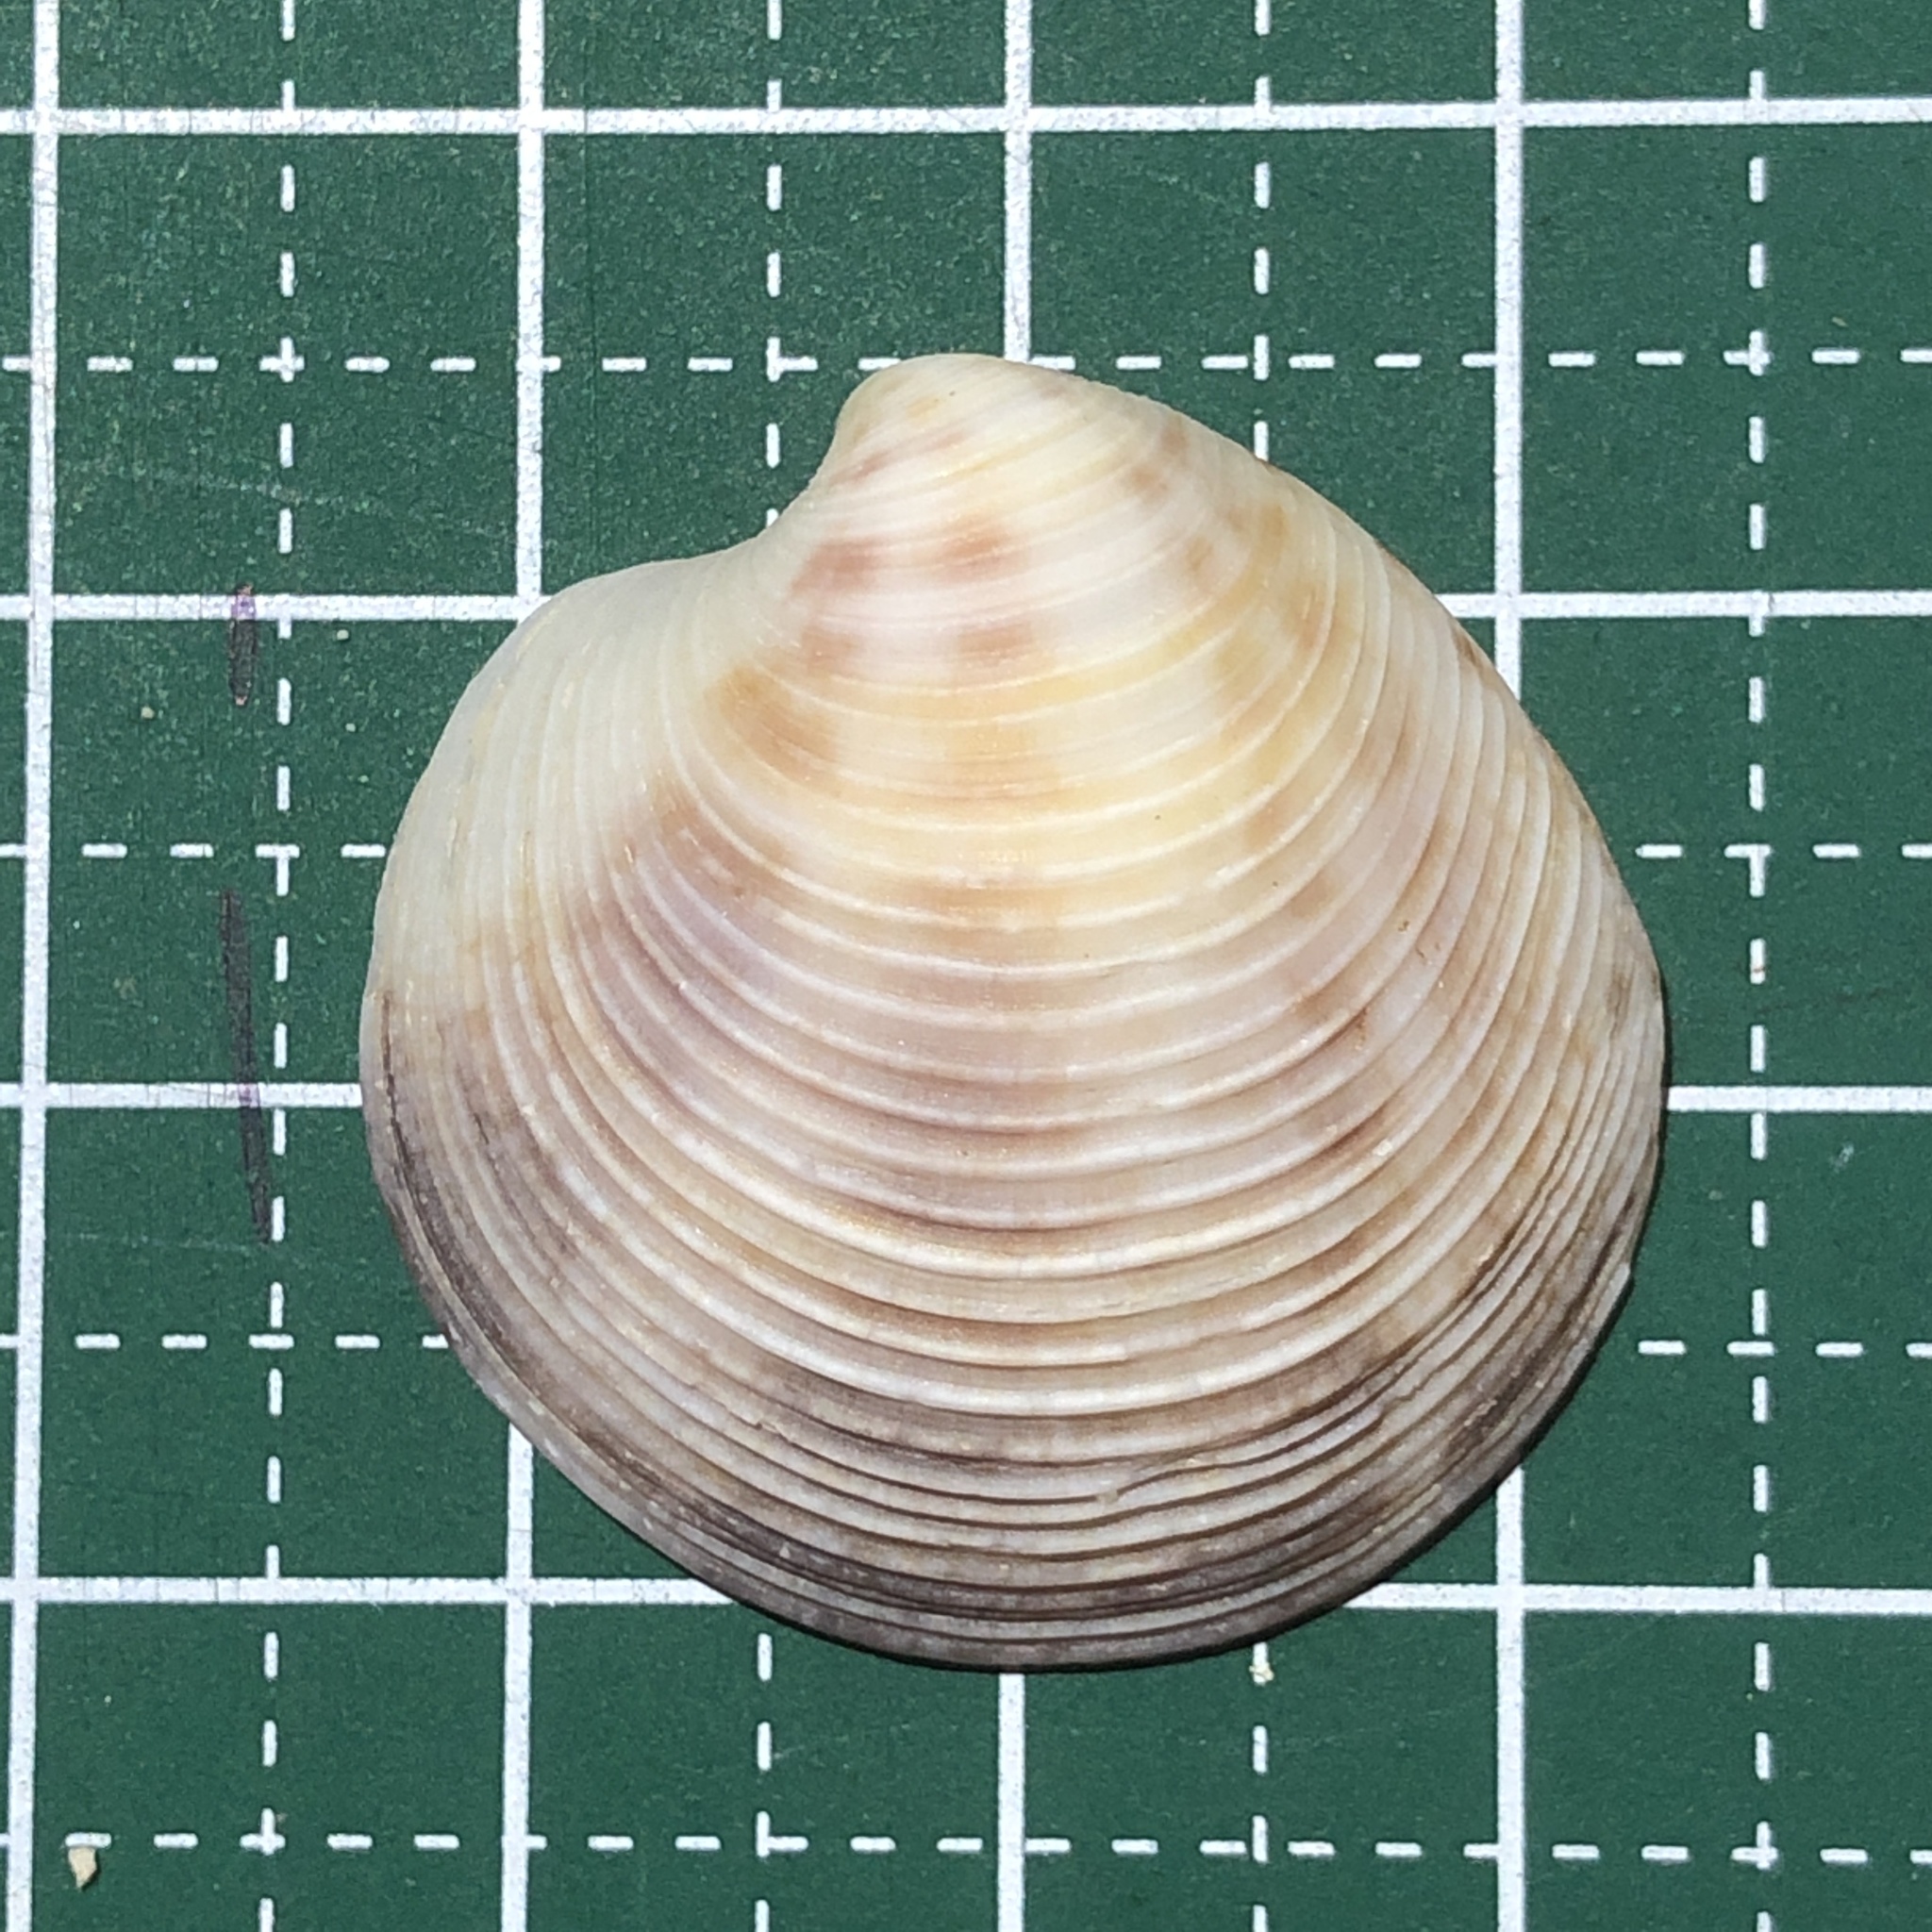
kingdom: Animalia
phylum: Mollusca
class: Bivalvia
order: Venerida
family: Veneridae
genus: Dosinia
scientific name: Dosinia histrio
